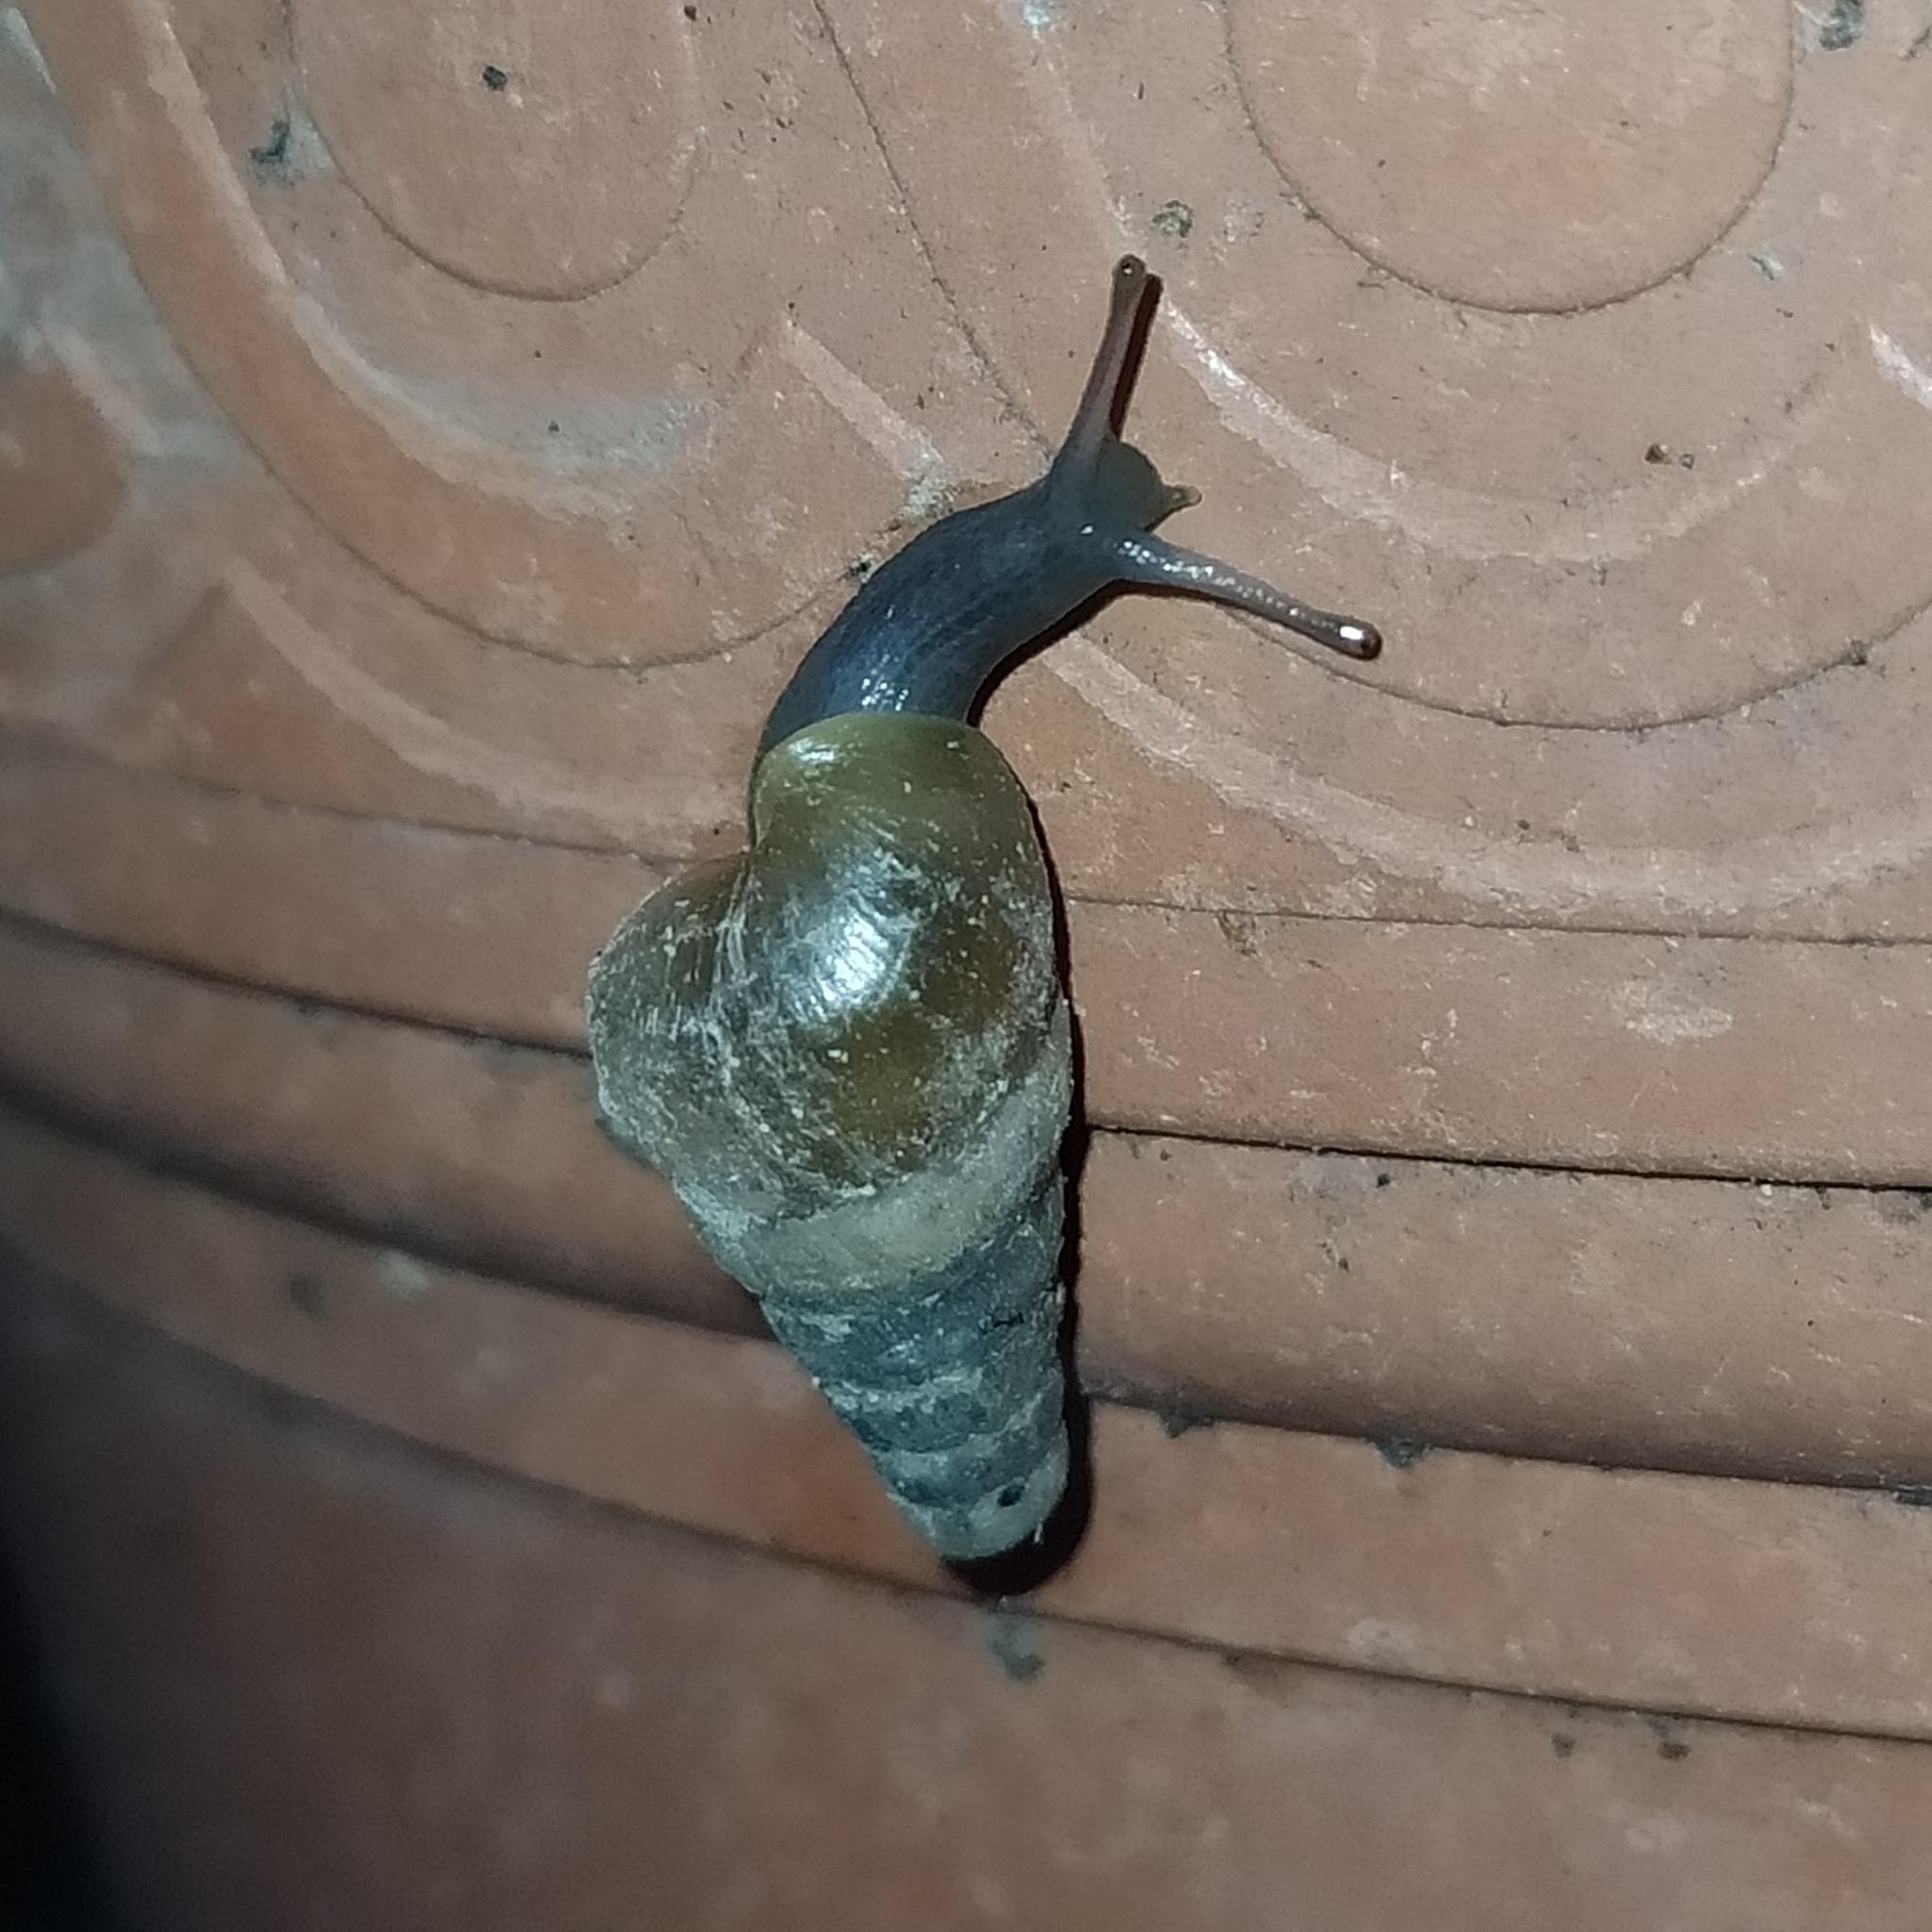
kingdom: Animalia
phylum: Mollusca
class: Gastropoda
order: Stylommatophora
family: Achatinidae
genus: Rumina
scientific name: Rumina decollata
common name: Decollate snail
